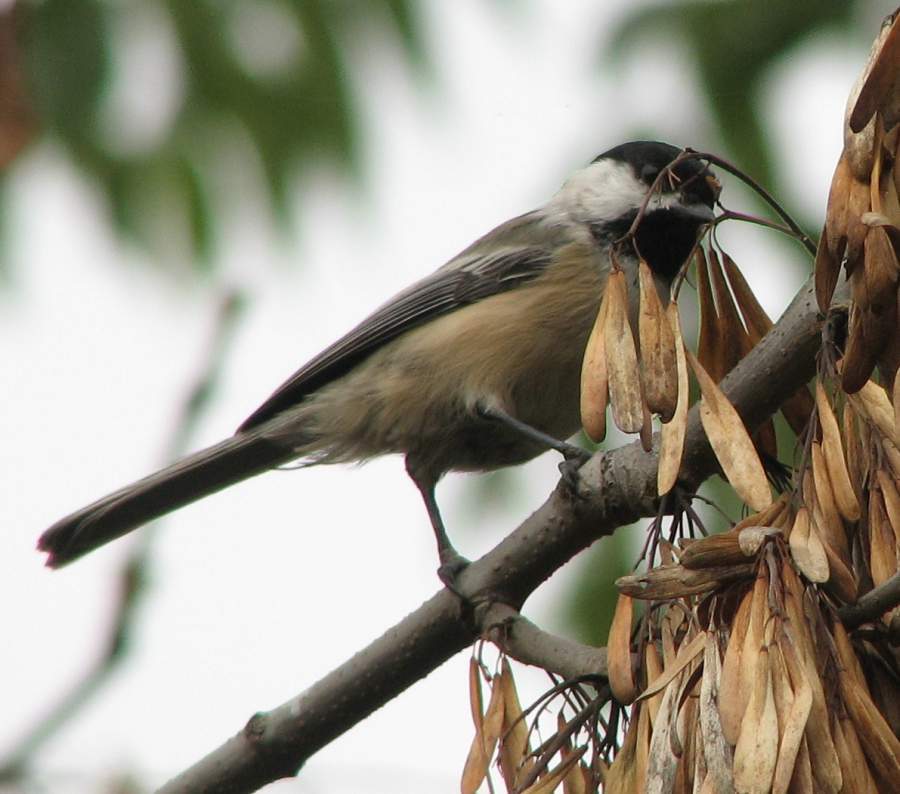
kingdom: Animalia
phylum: Chordata
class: Aves
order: Passeriformes
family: Paridae
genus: Poecile
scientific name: Poecile atricapillus
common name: Black-capped chickadee
